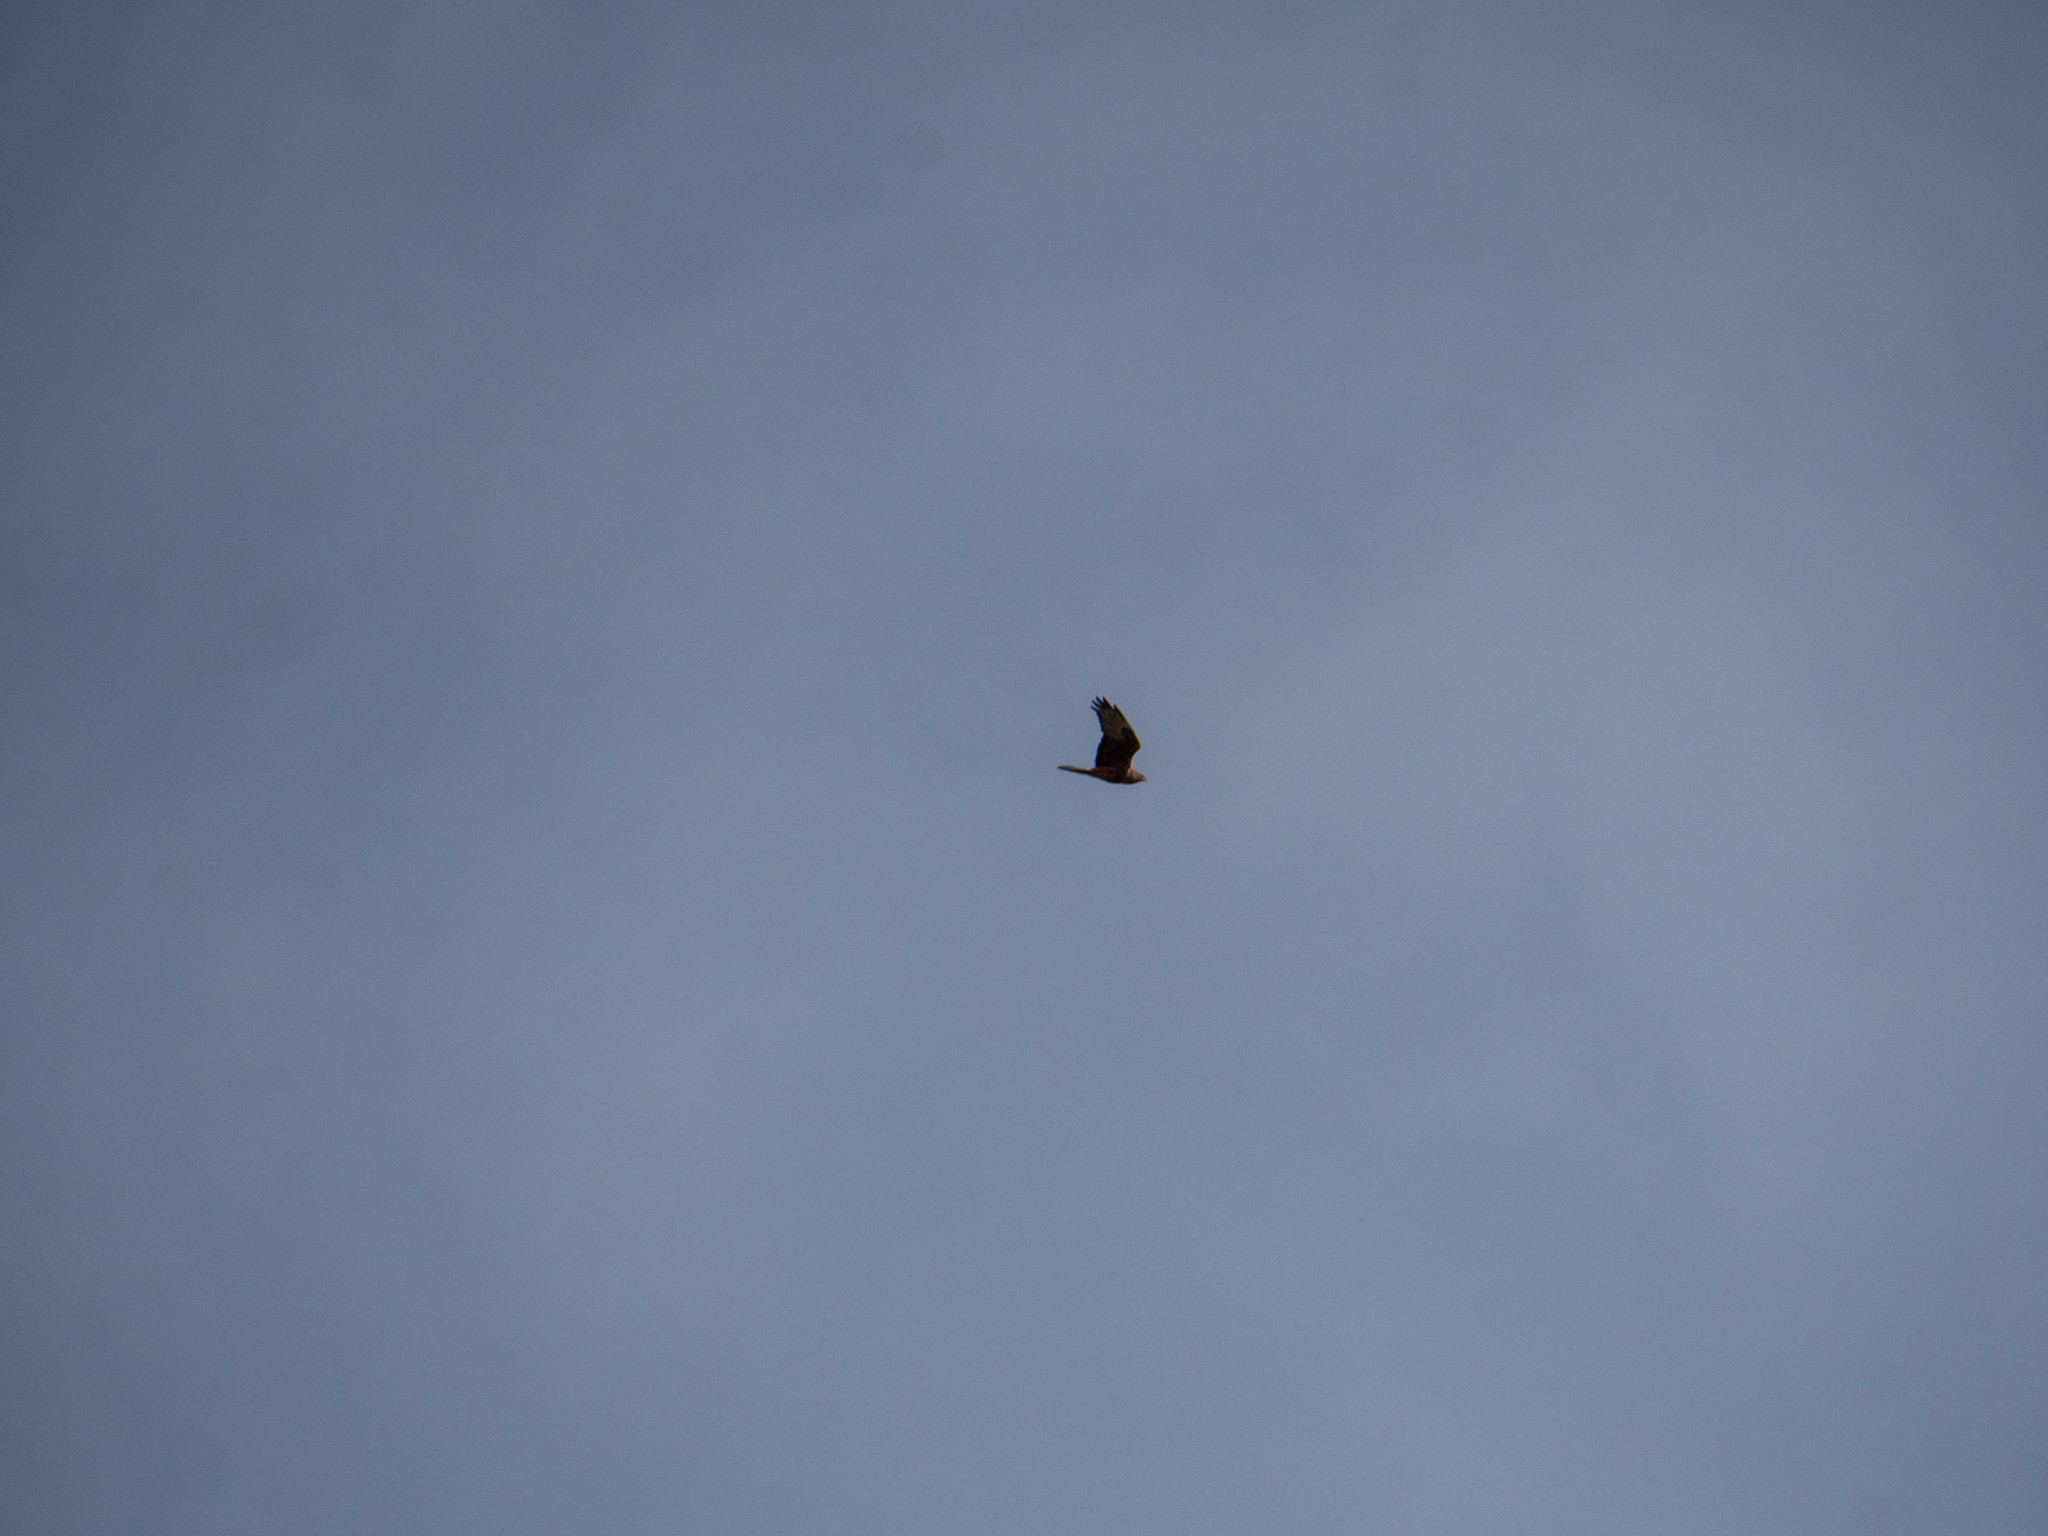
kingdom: Animalia
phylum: Chordata
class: Aves
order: Accipitriformes
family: Accipitridae
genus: Circus
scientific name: Circus approximans
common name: Swamp harrier
